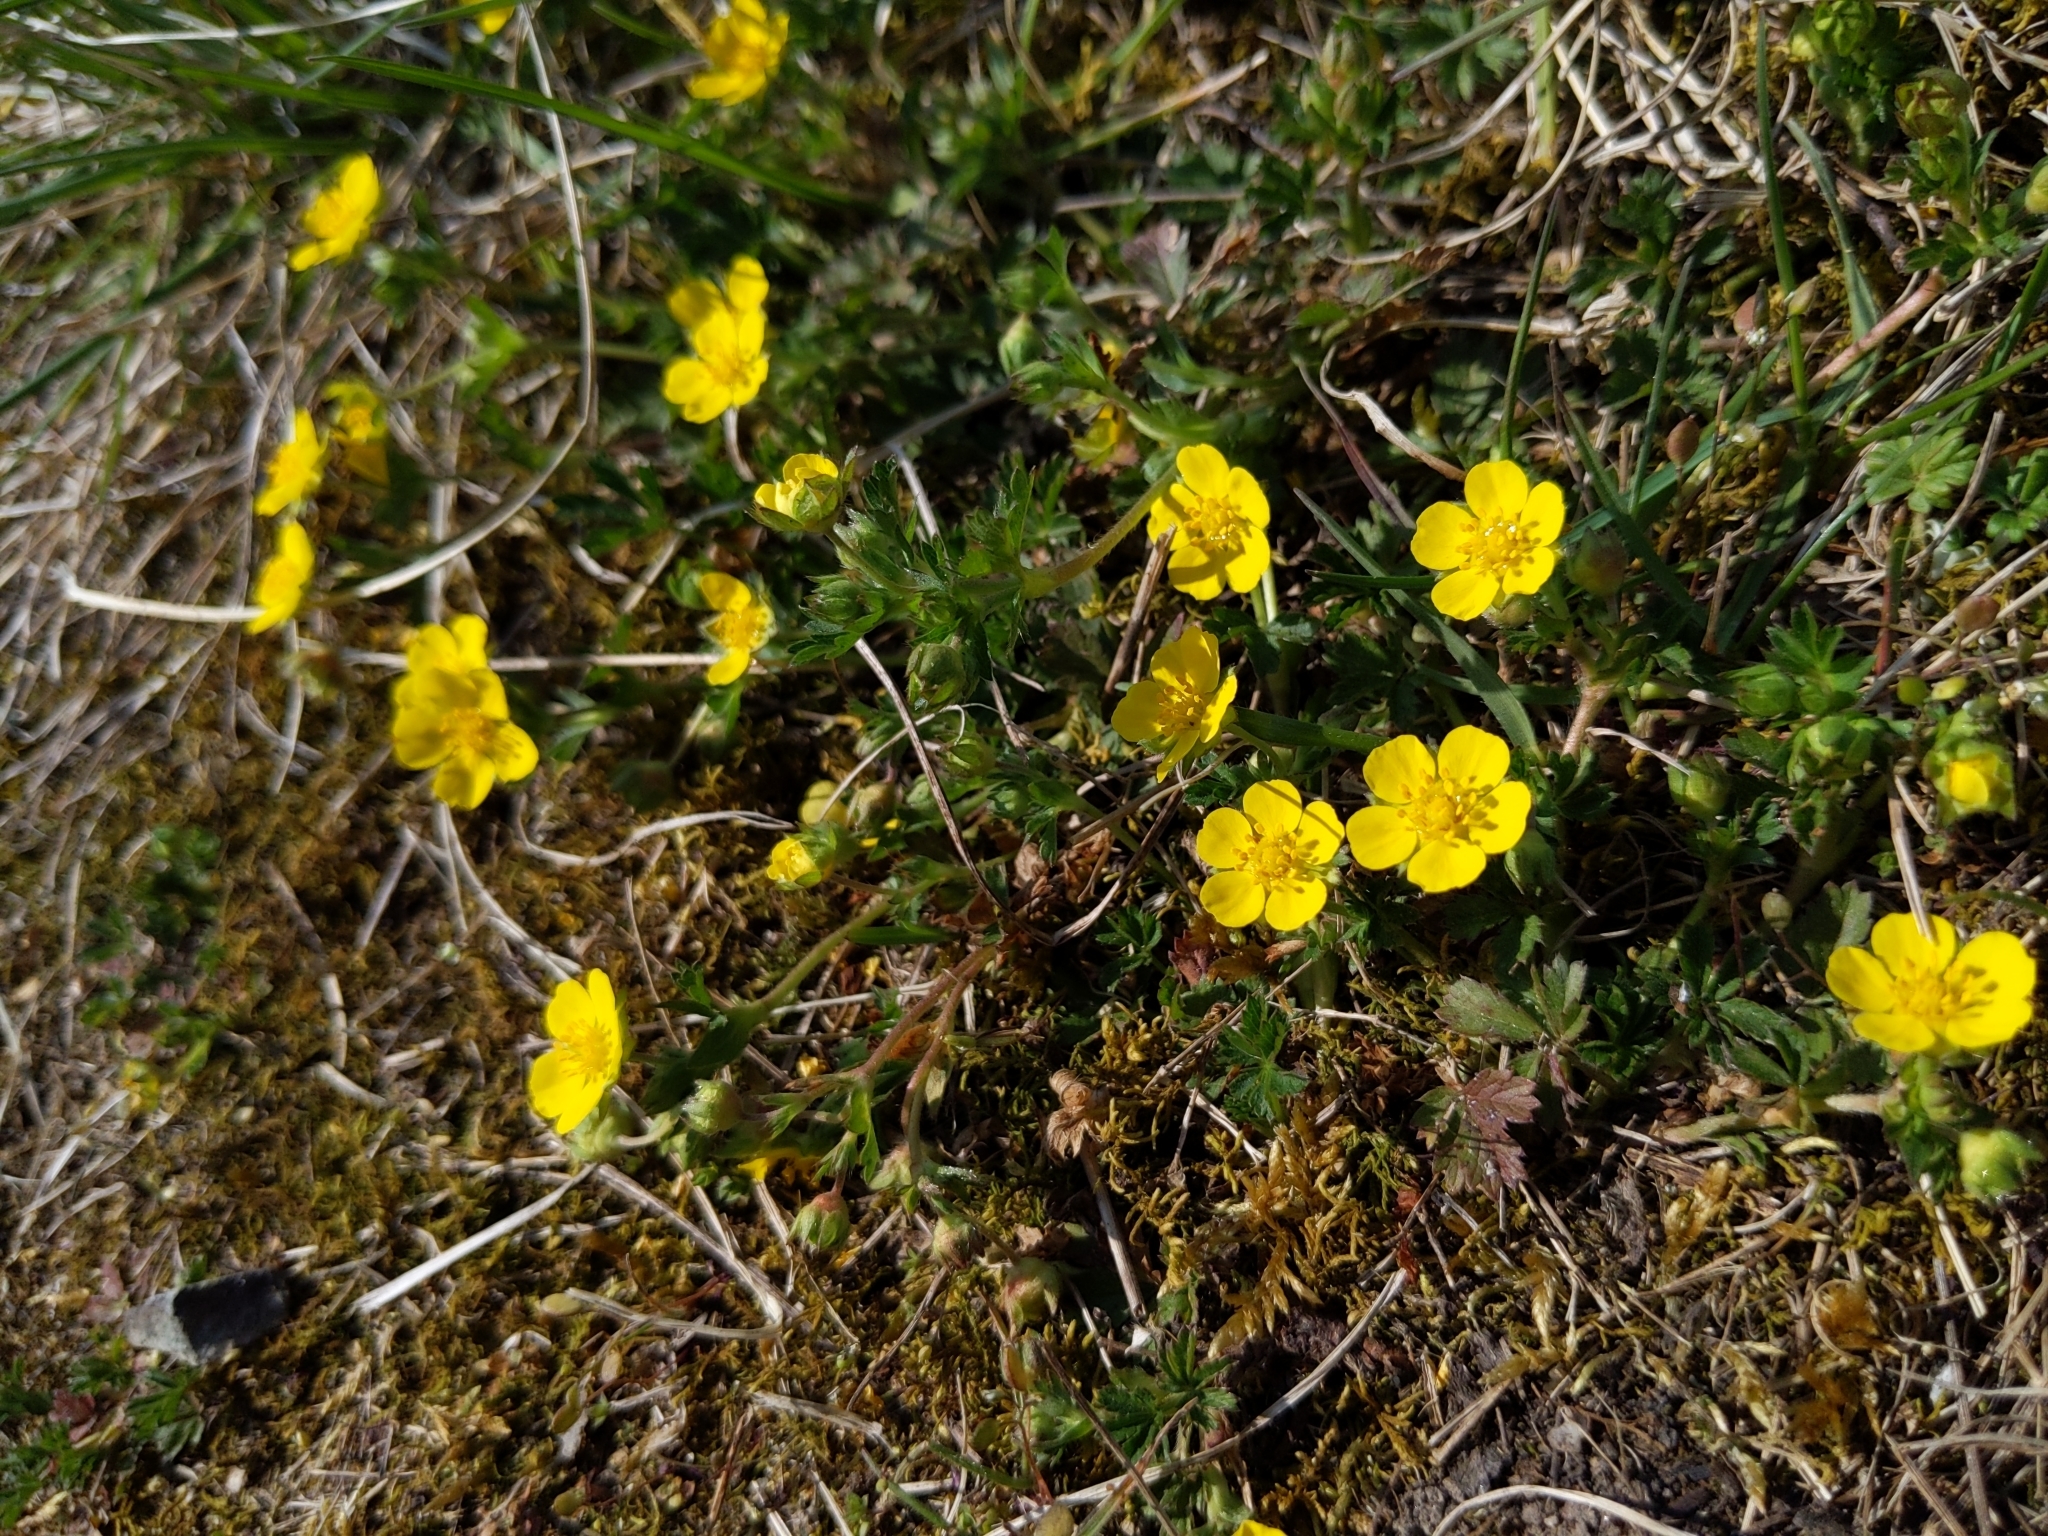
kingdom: Plantae
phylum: Tracheophyta
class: Magnoliopsida
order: Rosales
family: Rosaceae
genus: Potentilla
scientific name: Potentilla verna
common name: Spring cinquefoil
